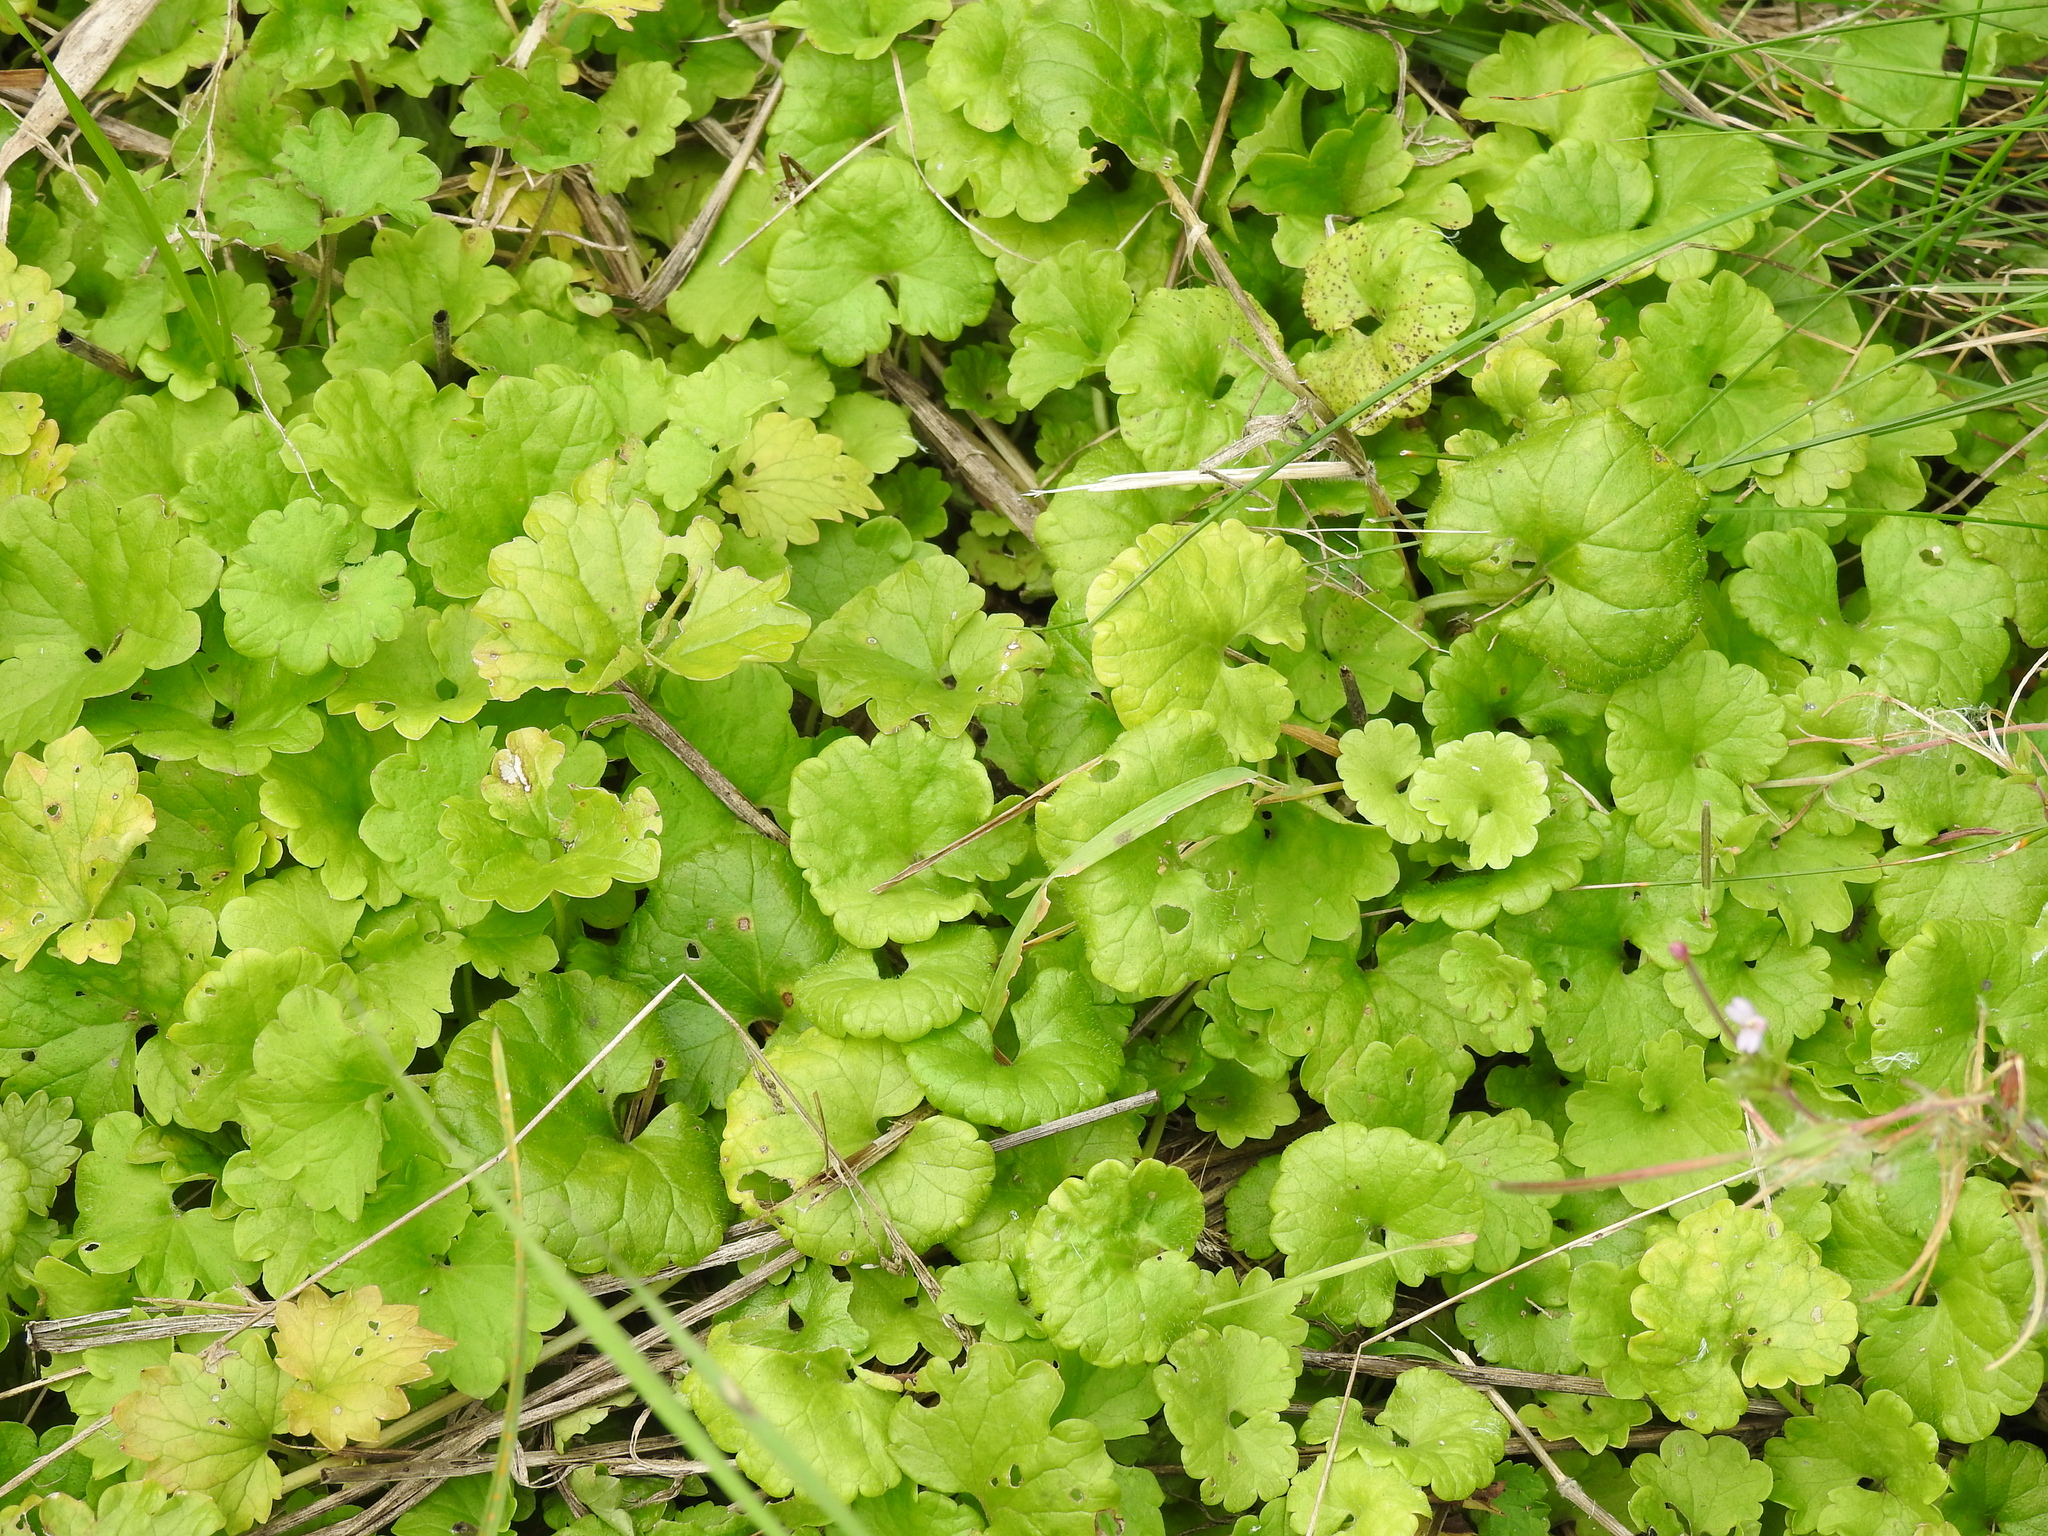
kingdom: Plantae
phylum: Tracheophyta
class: Magnoliopsida
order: Lamiales
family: Lamiaceae
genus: Glechoma
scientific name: Glechoma hederacea
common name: Ground ivy
